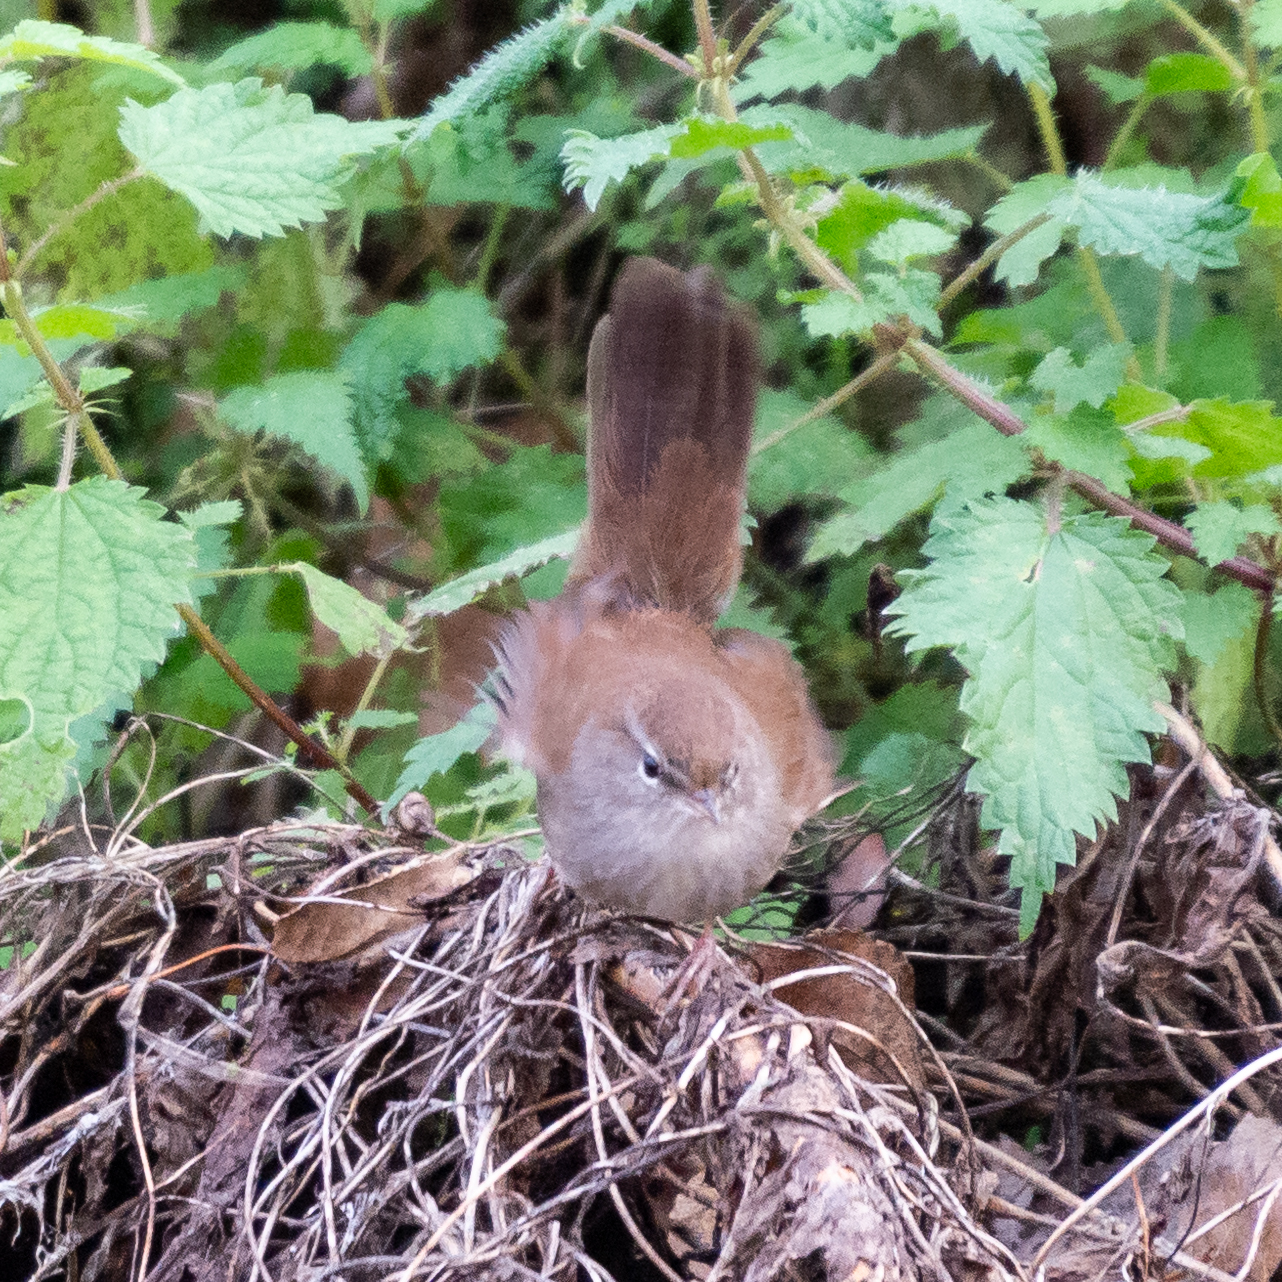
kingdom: Animalia
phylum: Chordata
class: Aves
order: Passeriformes
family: Cettiidae
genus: Cettia
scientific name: Cettia cetti
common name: Cetti's warbler
